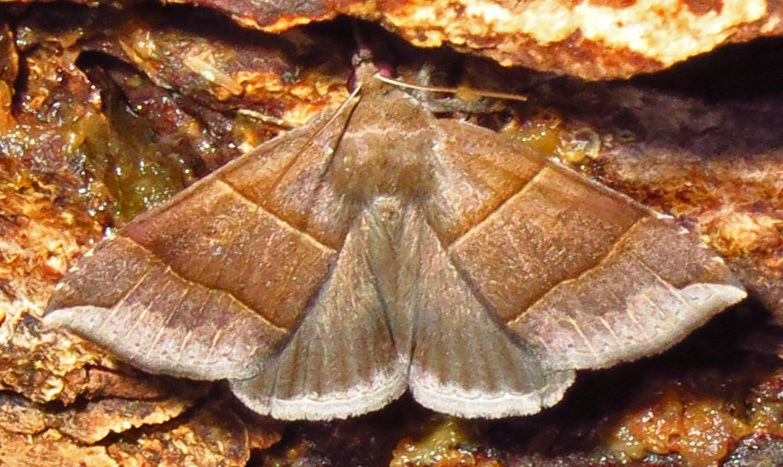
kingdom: Animalia
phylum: Arthropoda
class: Insecta
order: Lepidoptera
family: Erebidae
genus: Parallelia
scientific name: Parallelia bistriaris
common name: Maple looper moth
